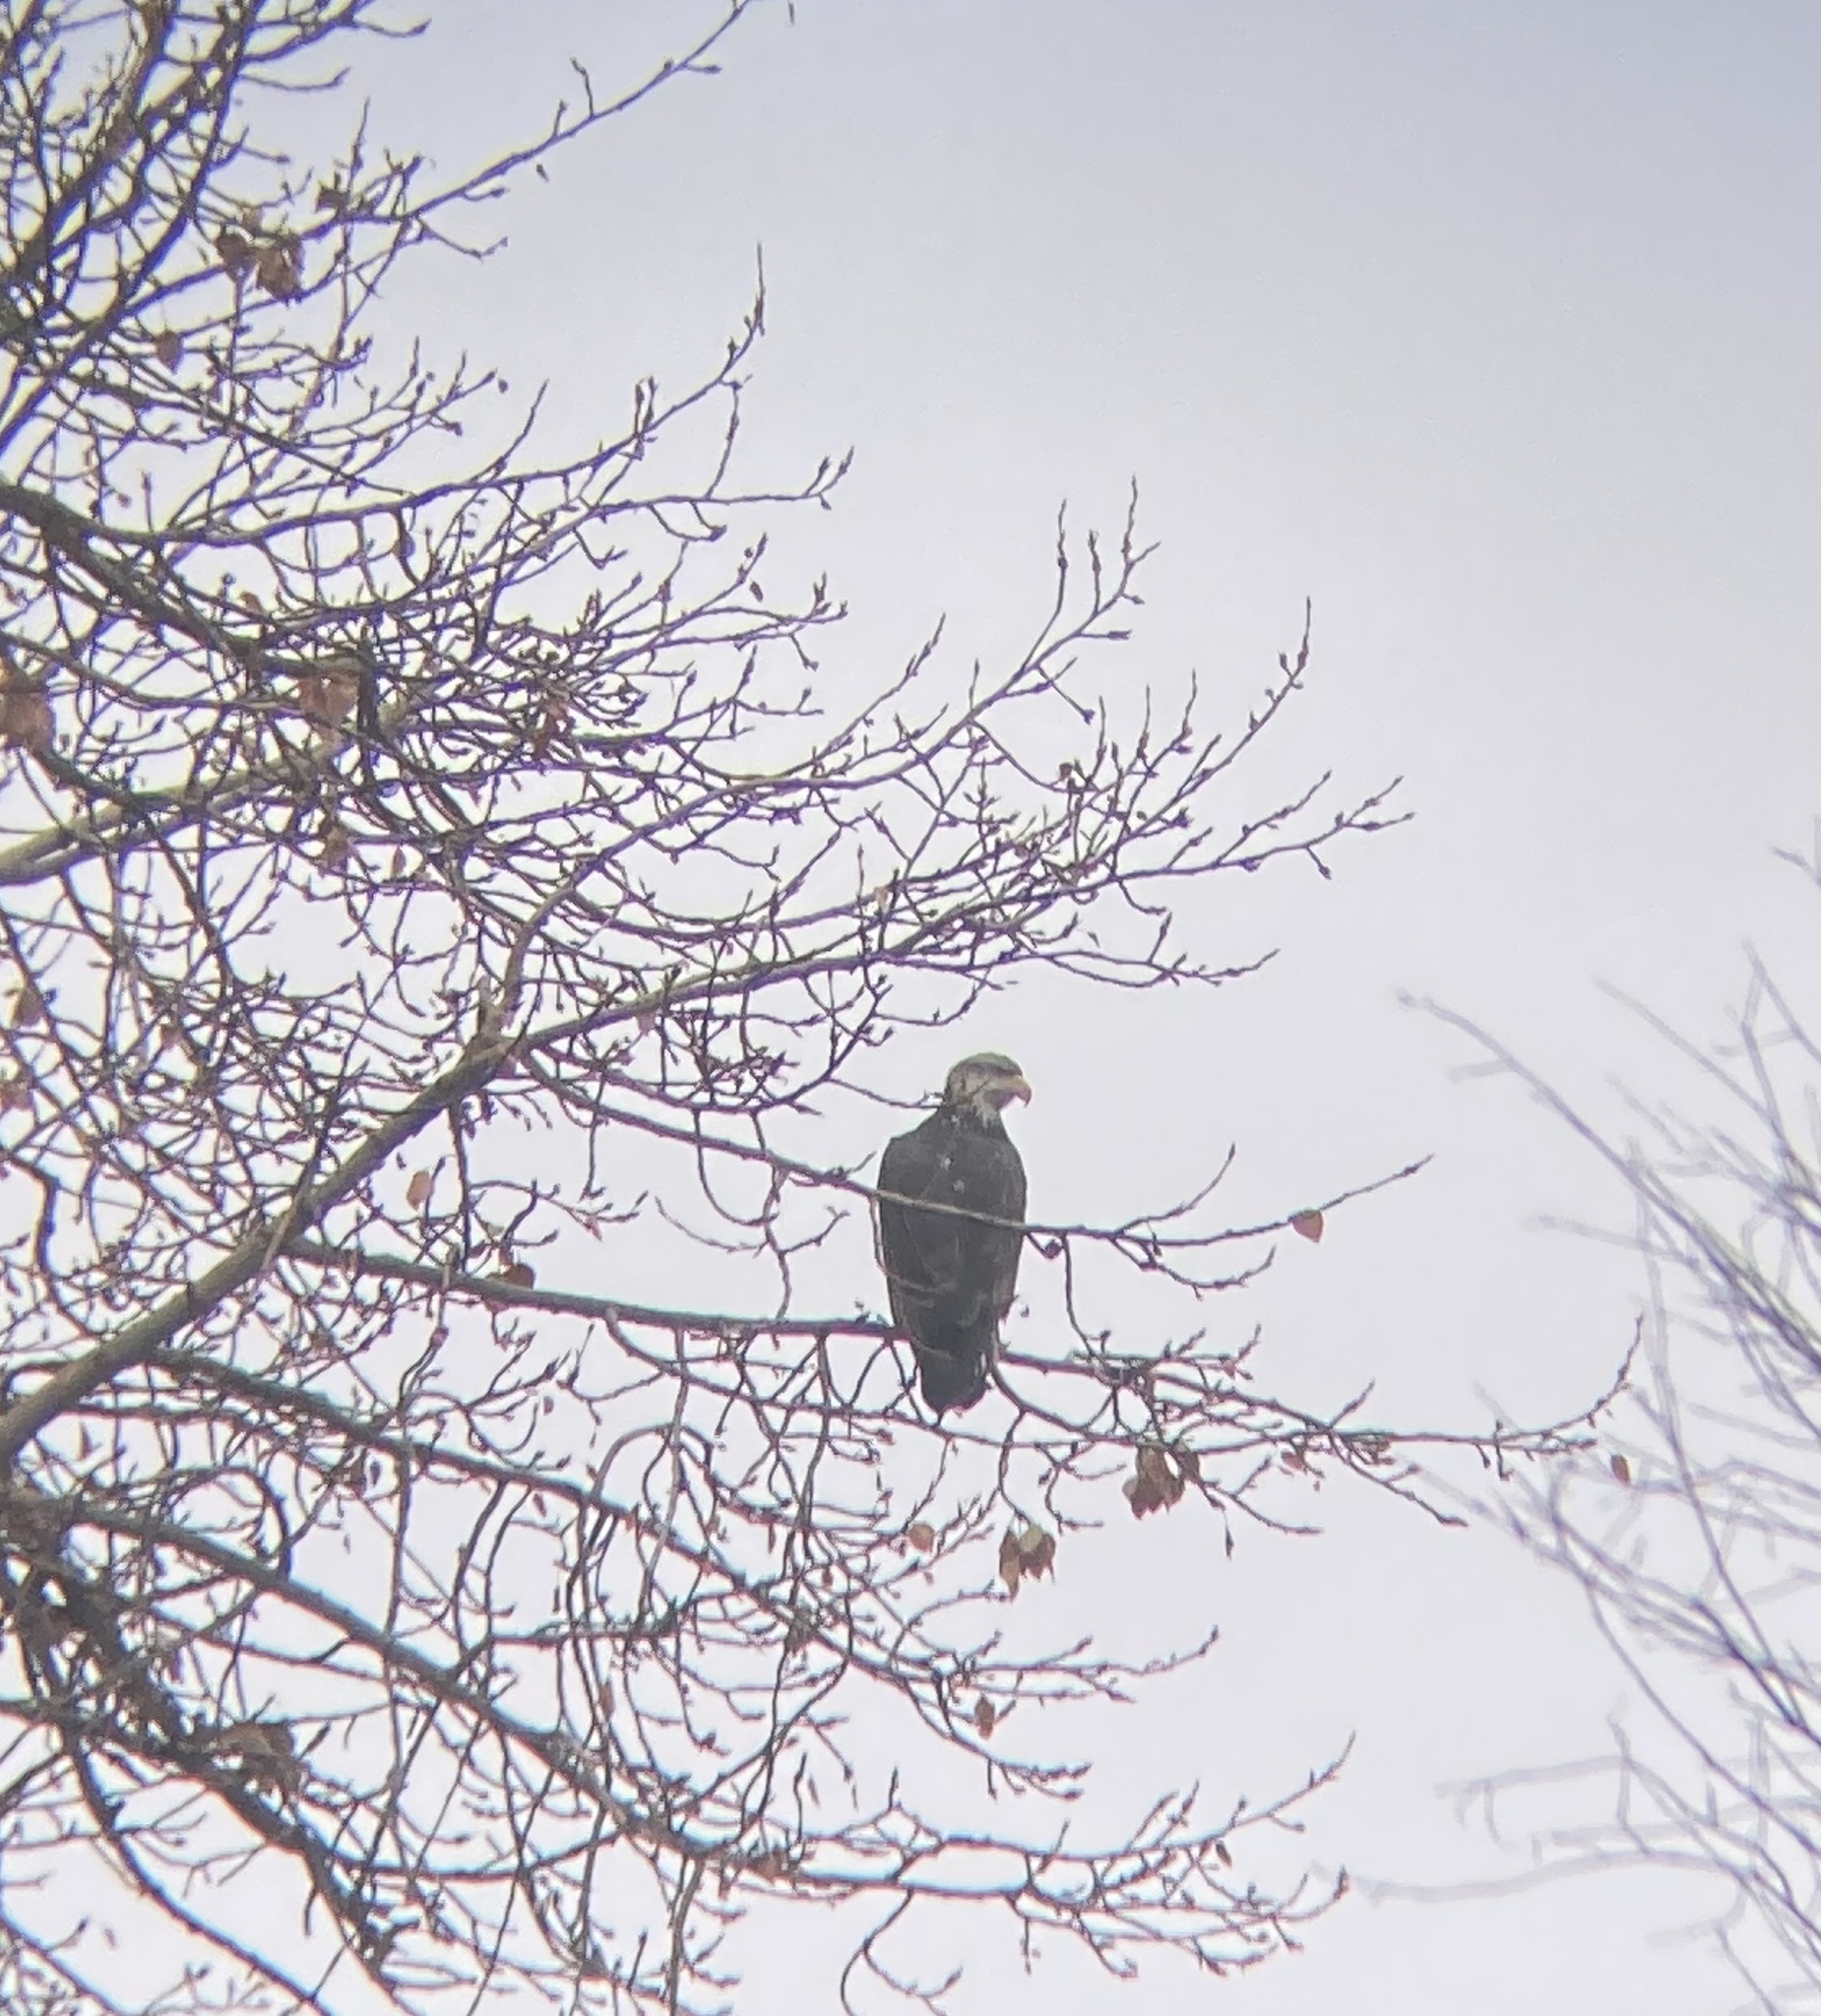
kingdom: Animalia
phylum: Chordata
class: Aves
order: Accipitriformes
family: Accipitridae
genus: Haliaeetus
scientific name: Haliaeetus leucocephalus
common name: Bald eagle
